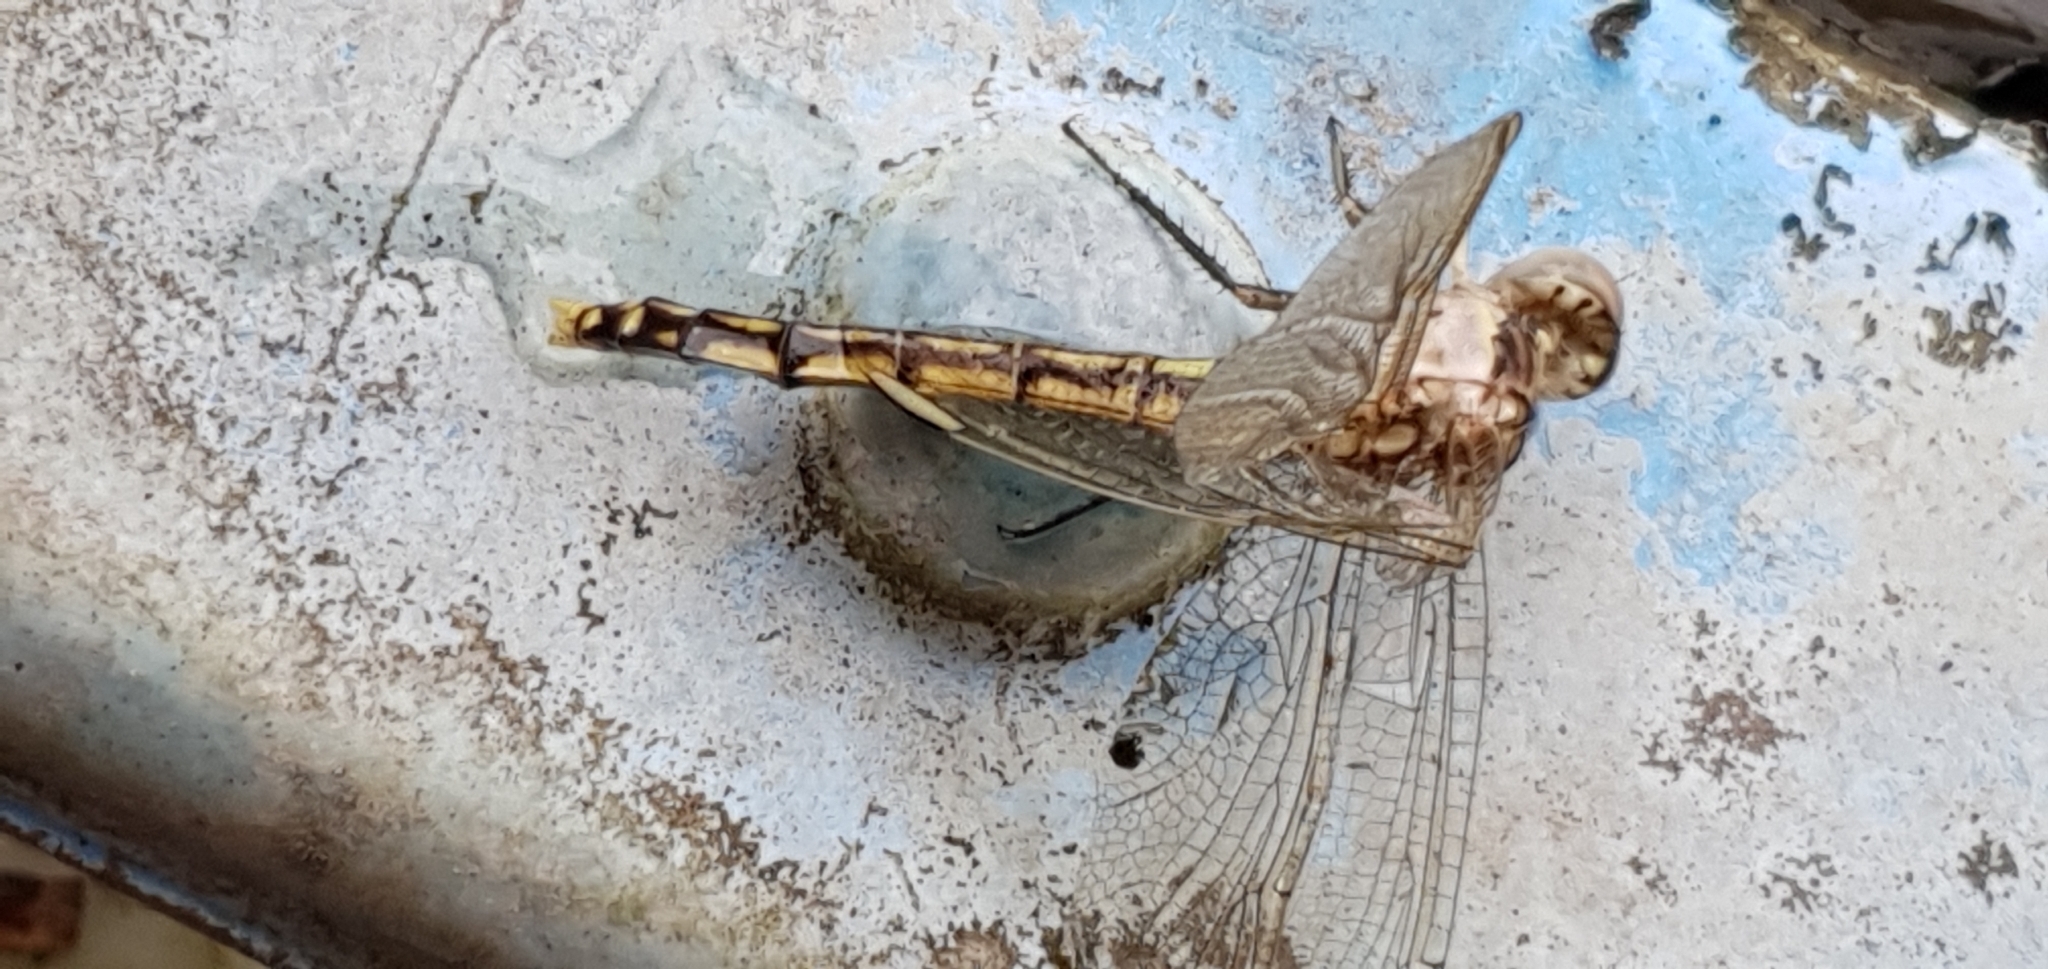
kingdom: Animalia
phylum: Arthropoda
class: Insecta
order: Odonata
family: Libellulidae
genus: Orthetrum
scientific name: Orthetrum caledonicum
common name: Blue skimmer
